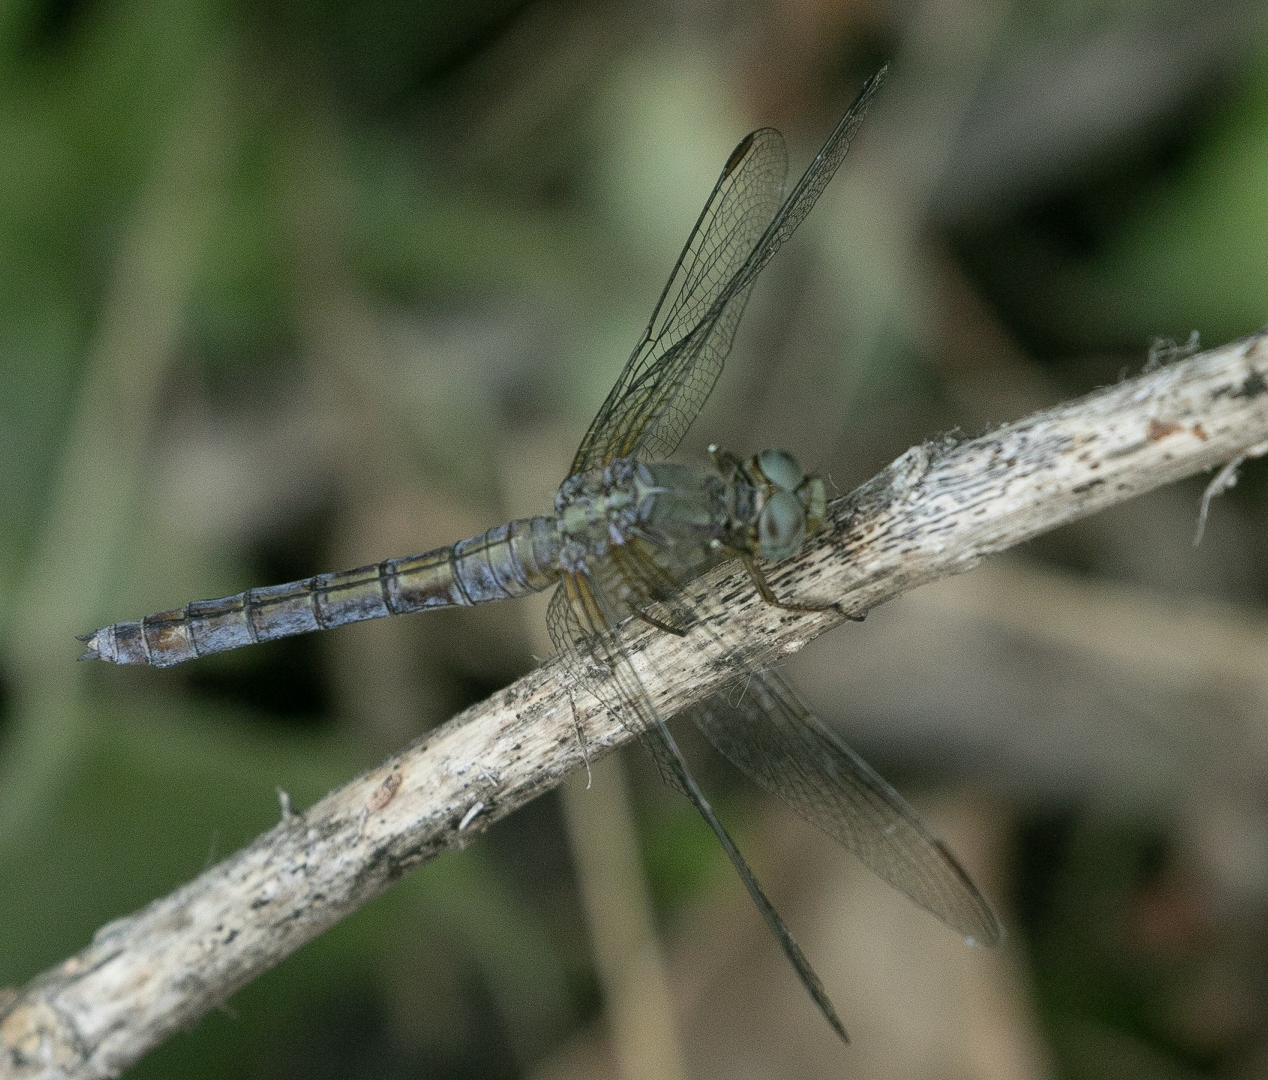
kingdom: Animalia
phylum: Arthropoda
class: Insecta
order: Odonata
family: Libellulidae
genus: Orthetrum
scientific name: Orthetrum coerulescens
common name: Keeled skimmer
